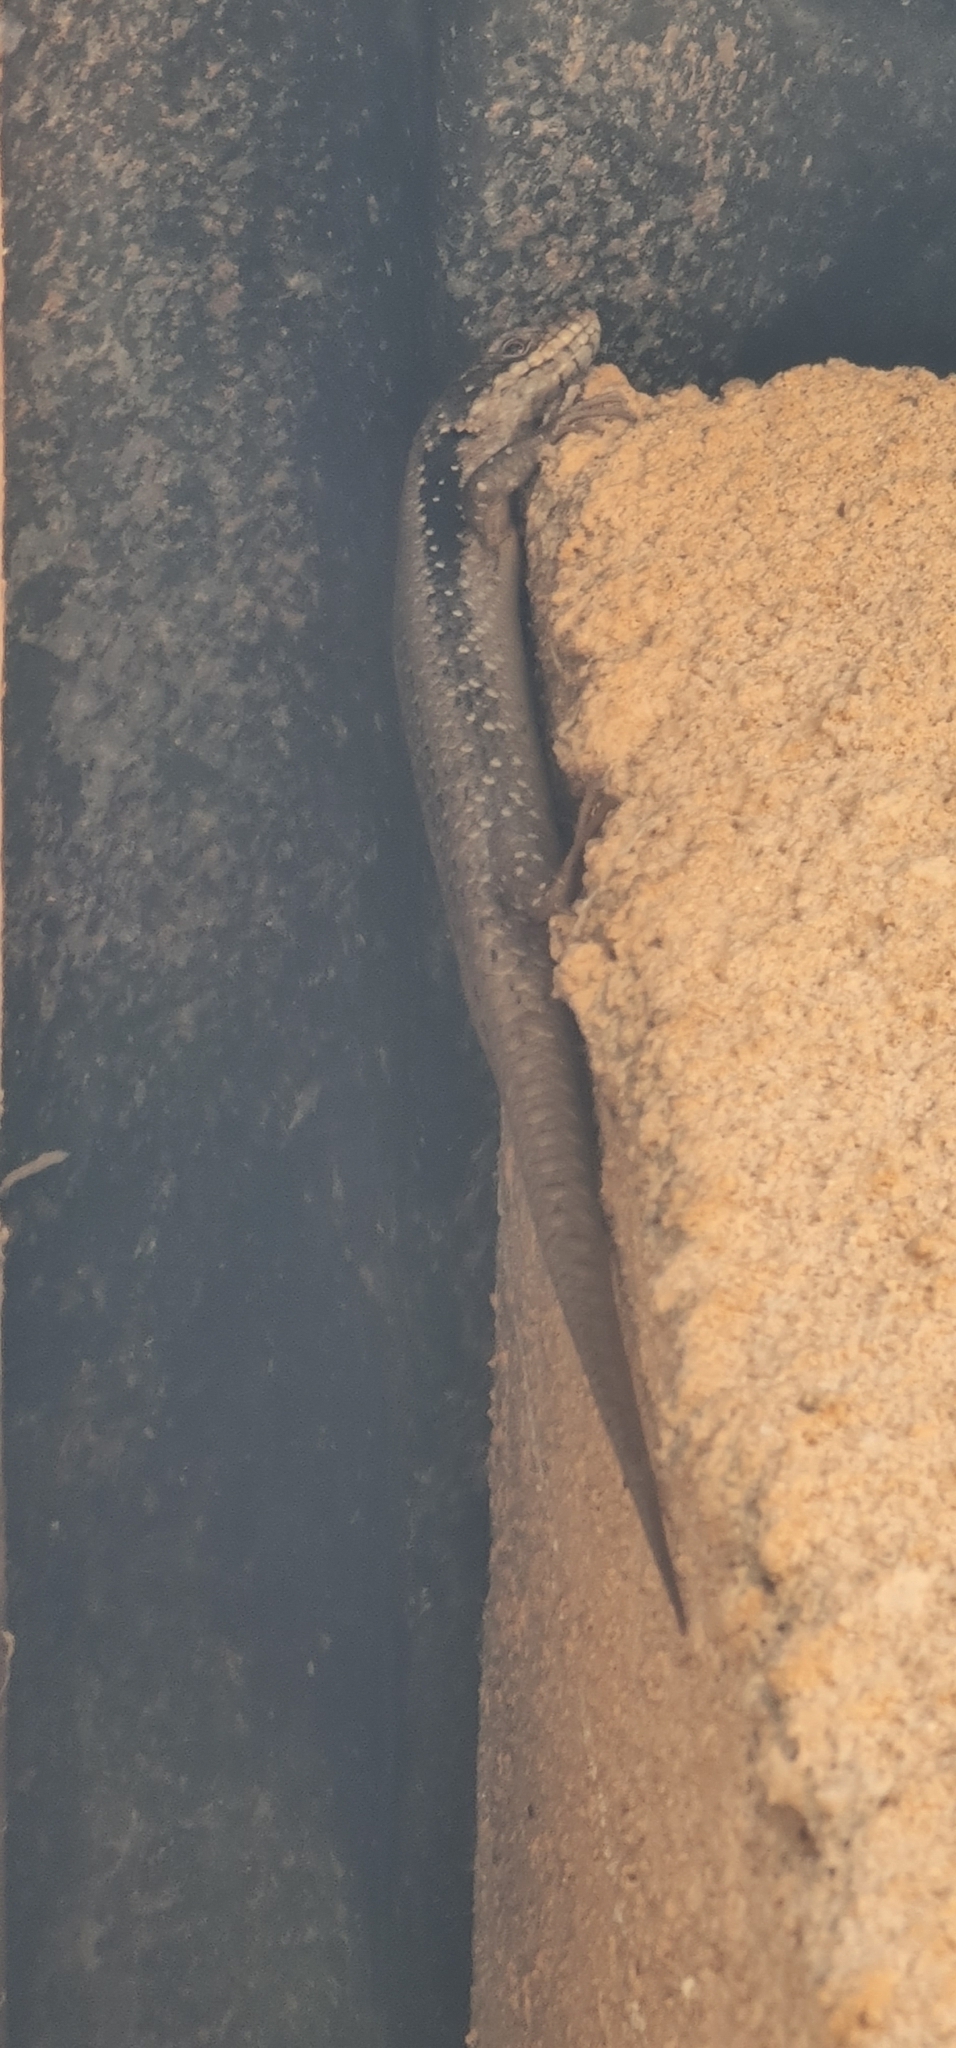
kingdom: Animalia
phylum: Chordata
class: Squamata
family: Scincidae
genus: Egernia
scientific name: Egernia striolata
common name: Tree skink
